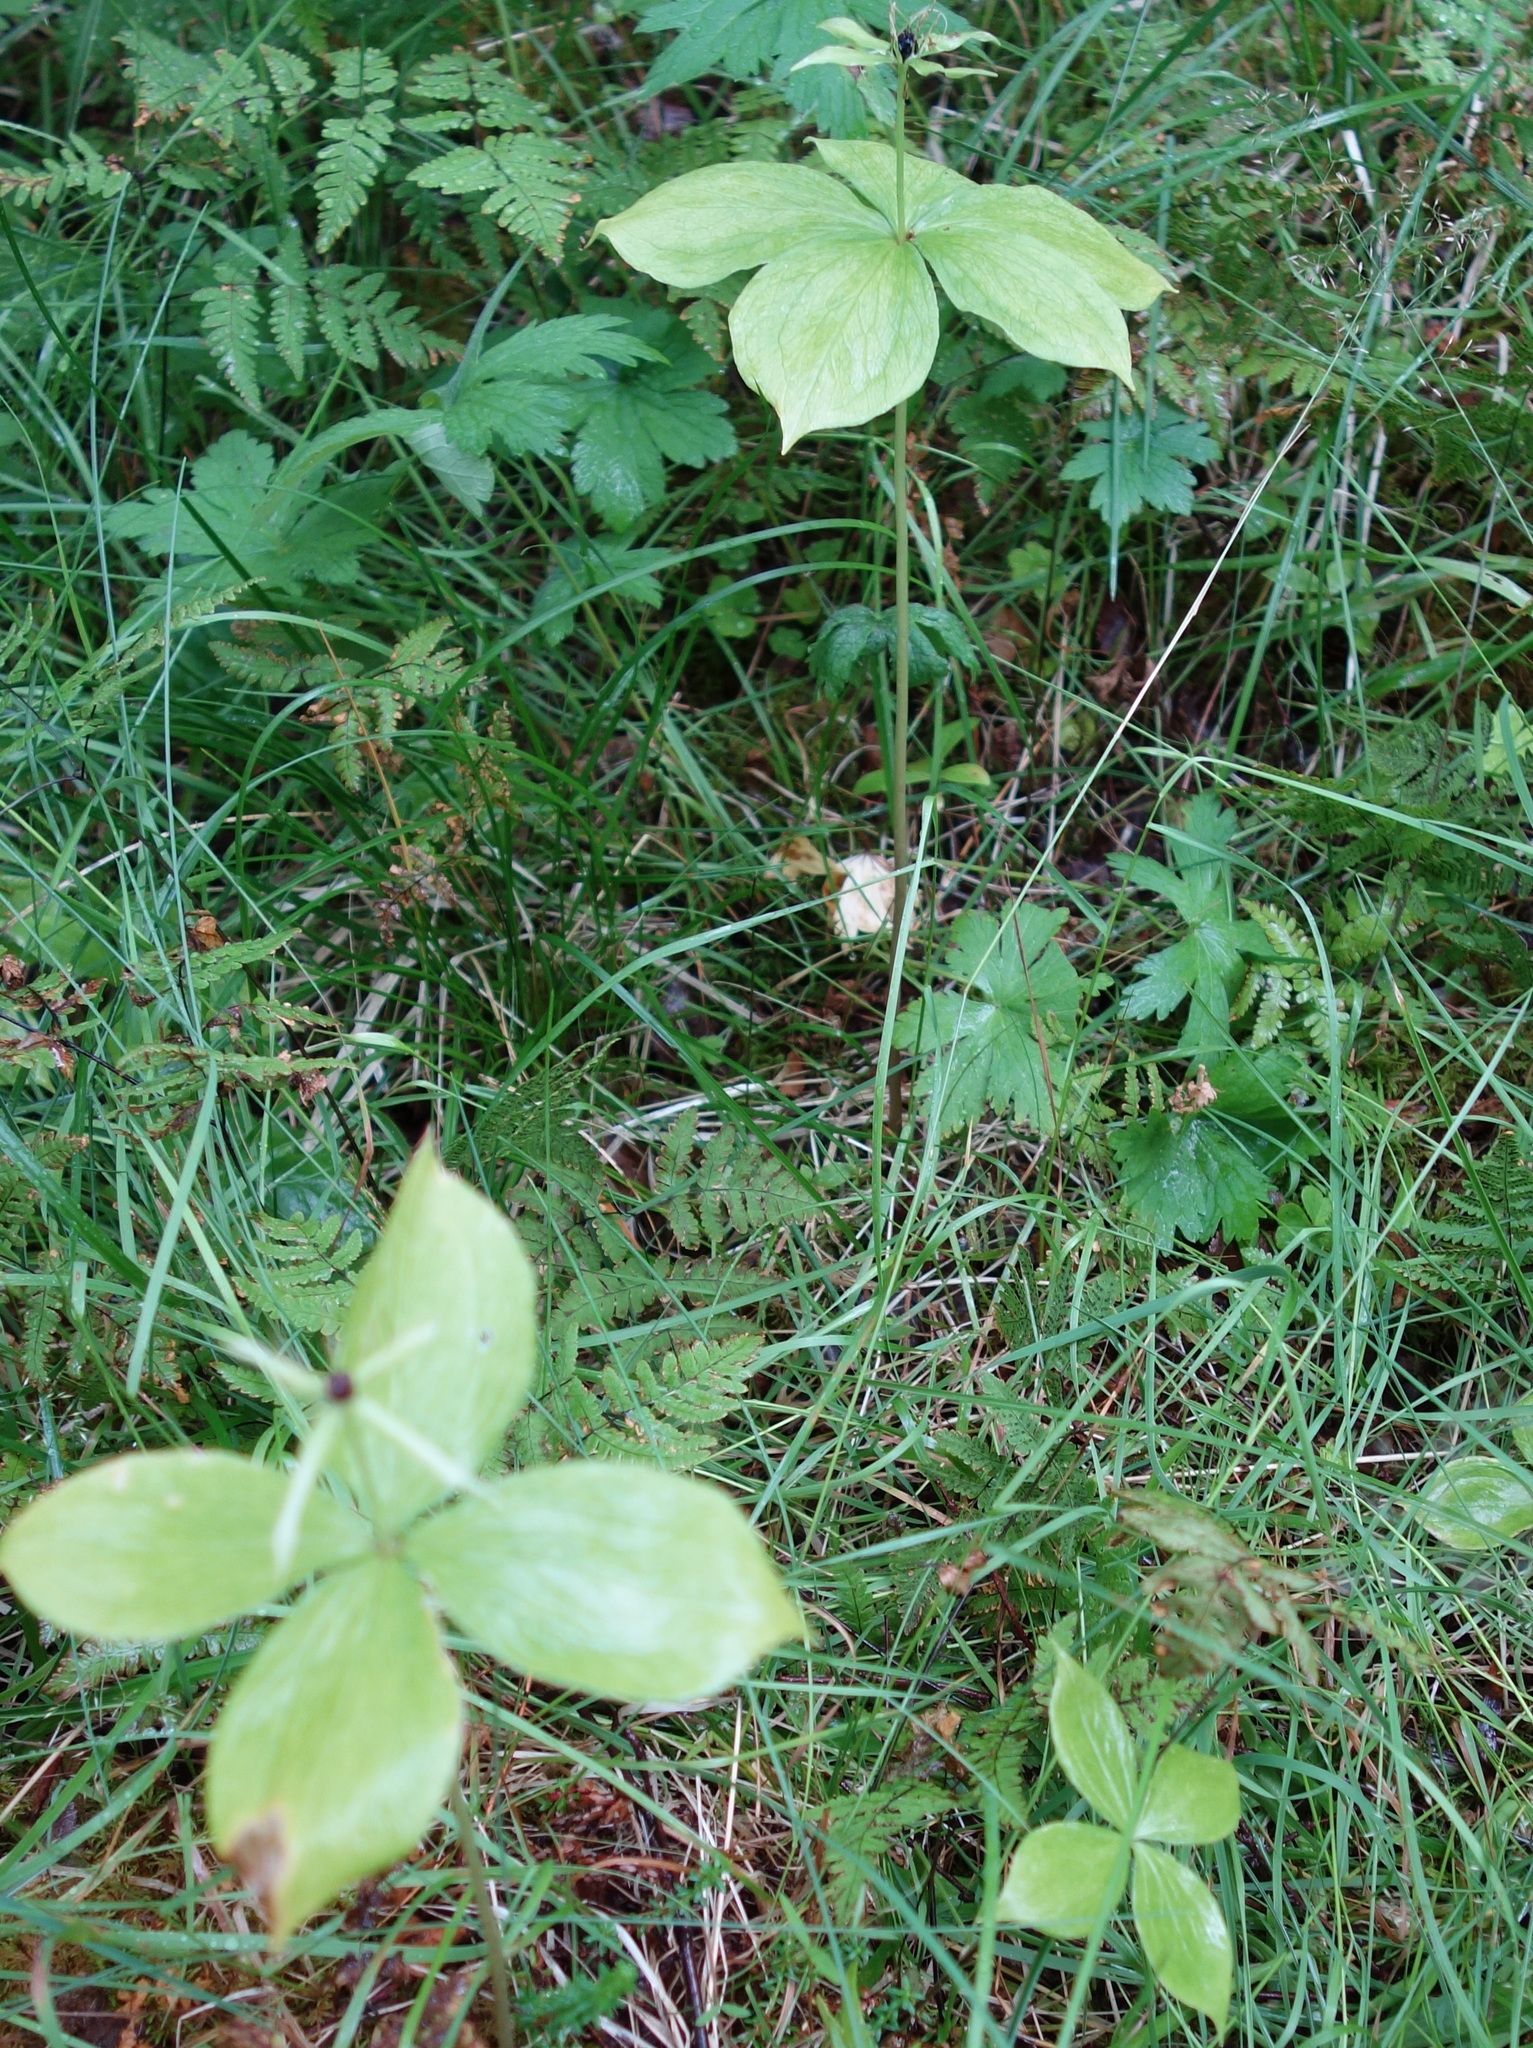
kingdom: Plantae
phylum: Tracheophyta
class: Liliopsida
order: Liliales
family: Melanthiaceae
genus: Paris
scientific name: Paris quadrifolia
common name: Herb-paris
